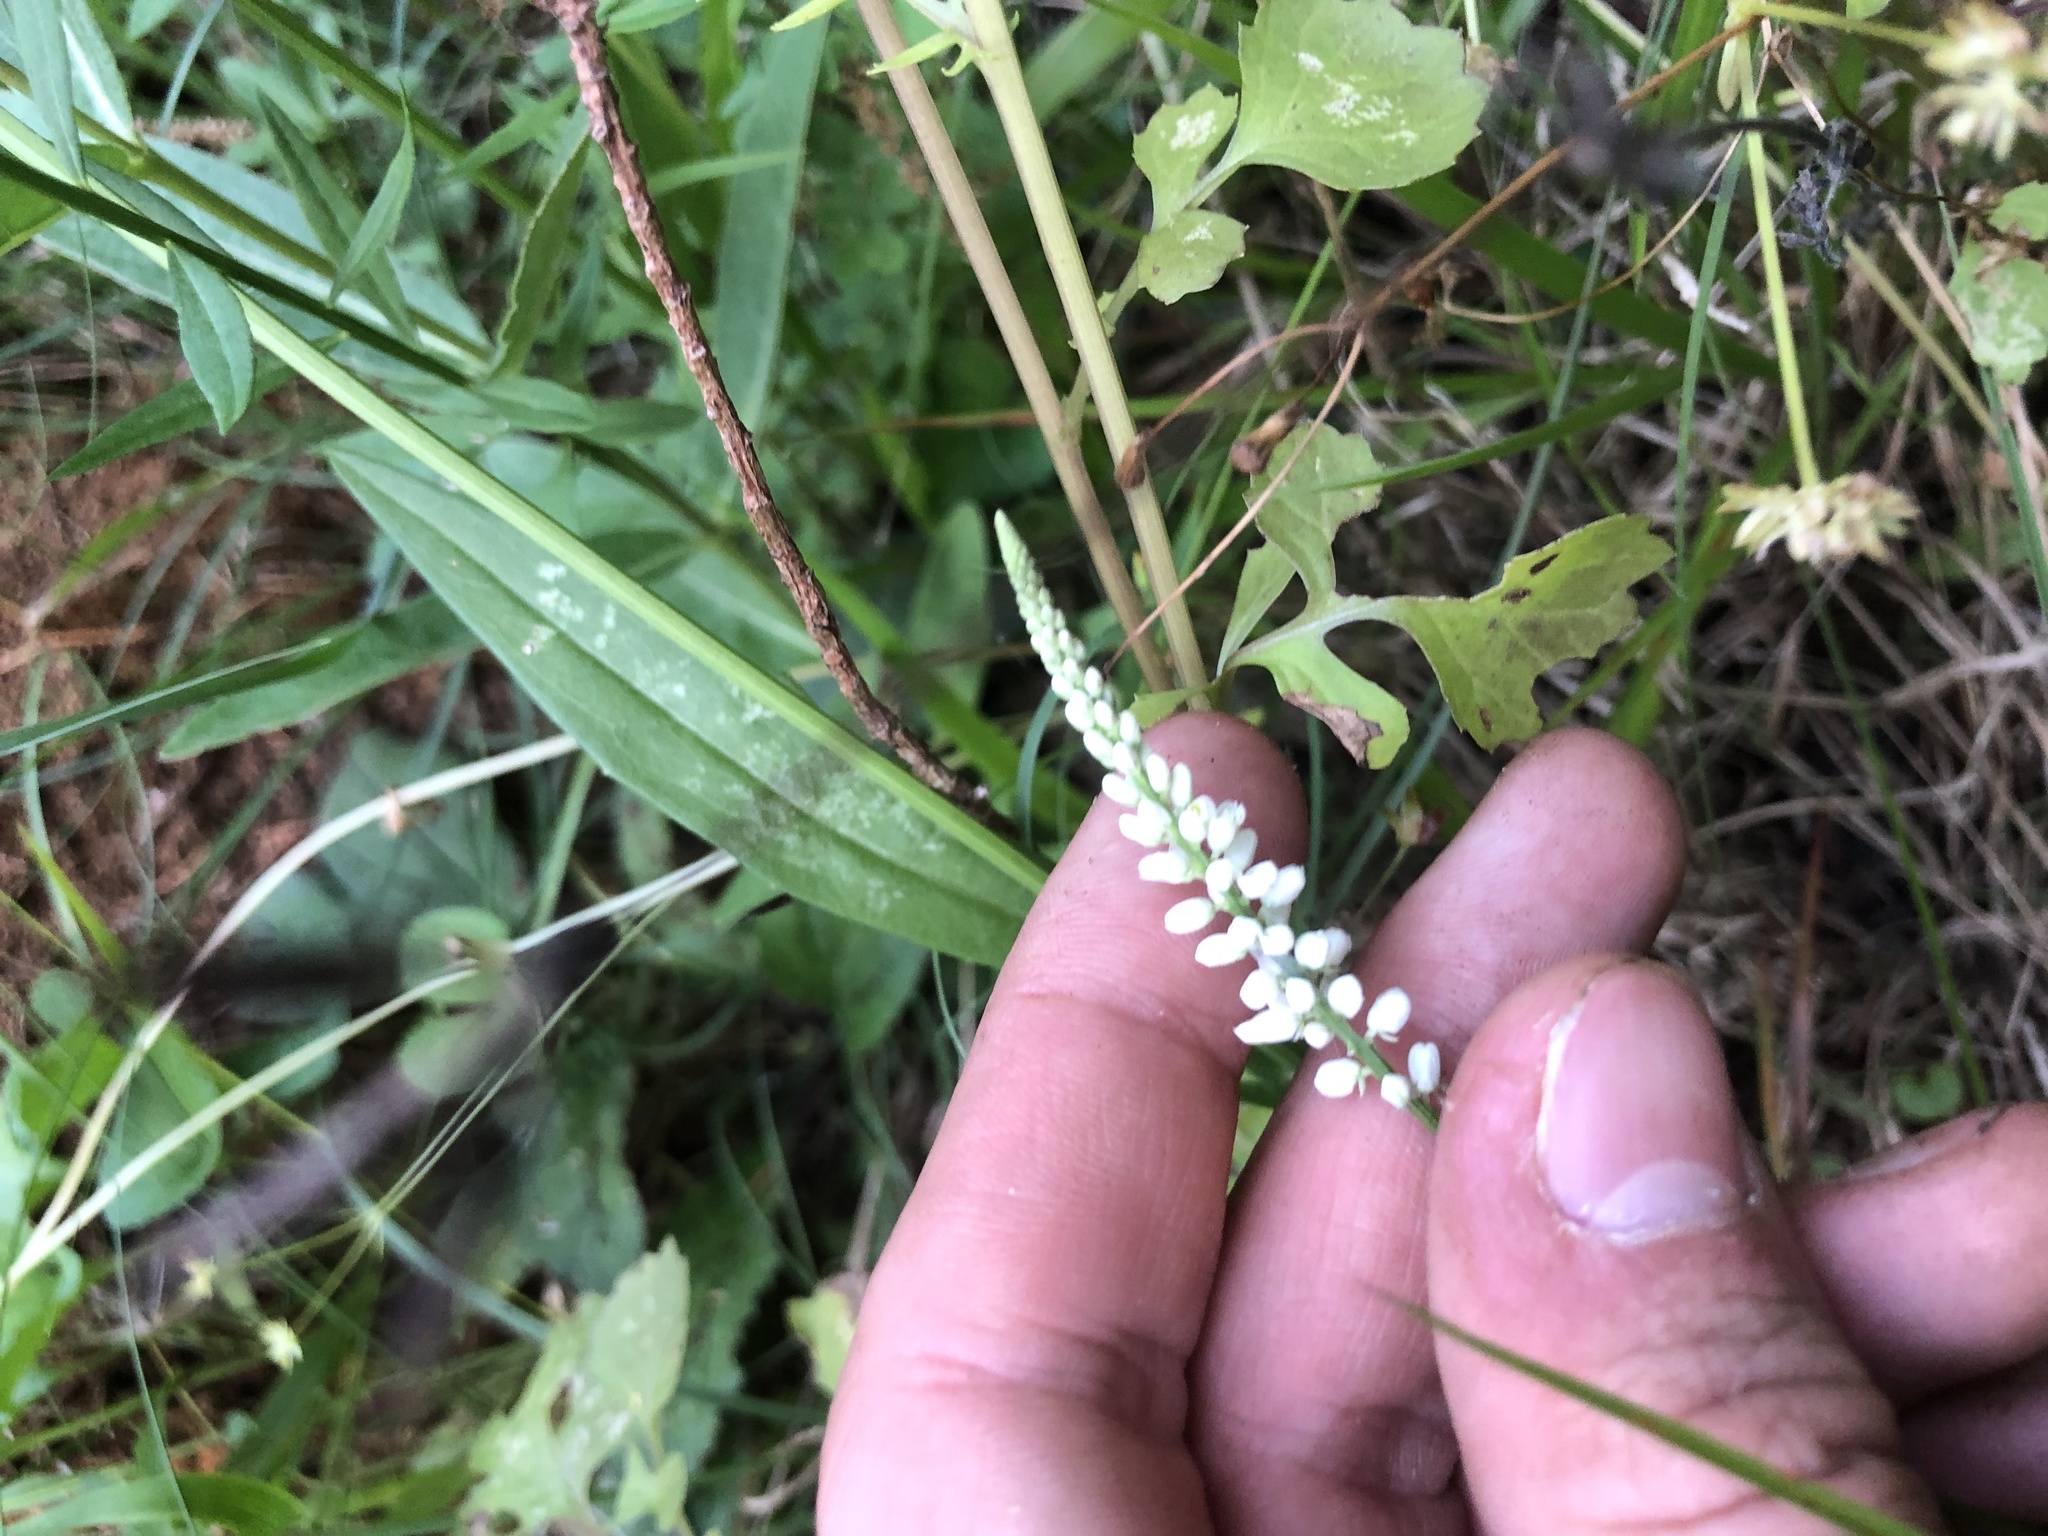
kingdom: Plantae
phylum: Tracheophyta
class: Magnoliopsida
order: Fabales
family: Polygalaceae
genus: Polygala
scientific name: Polygala boykinii
